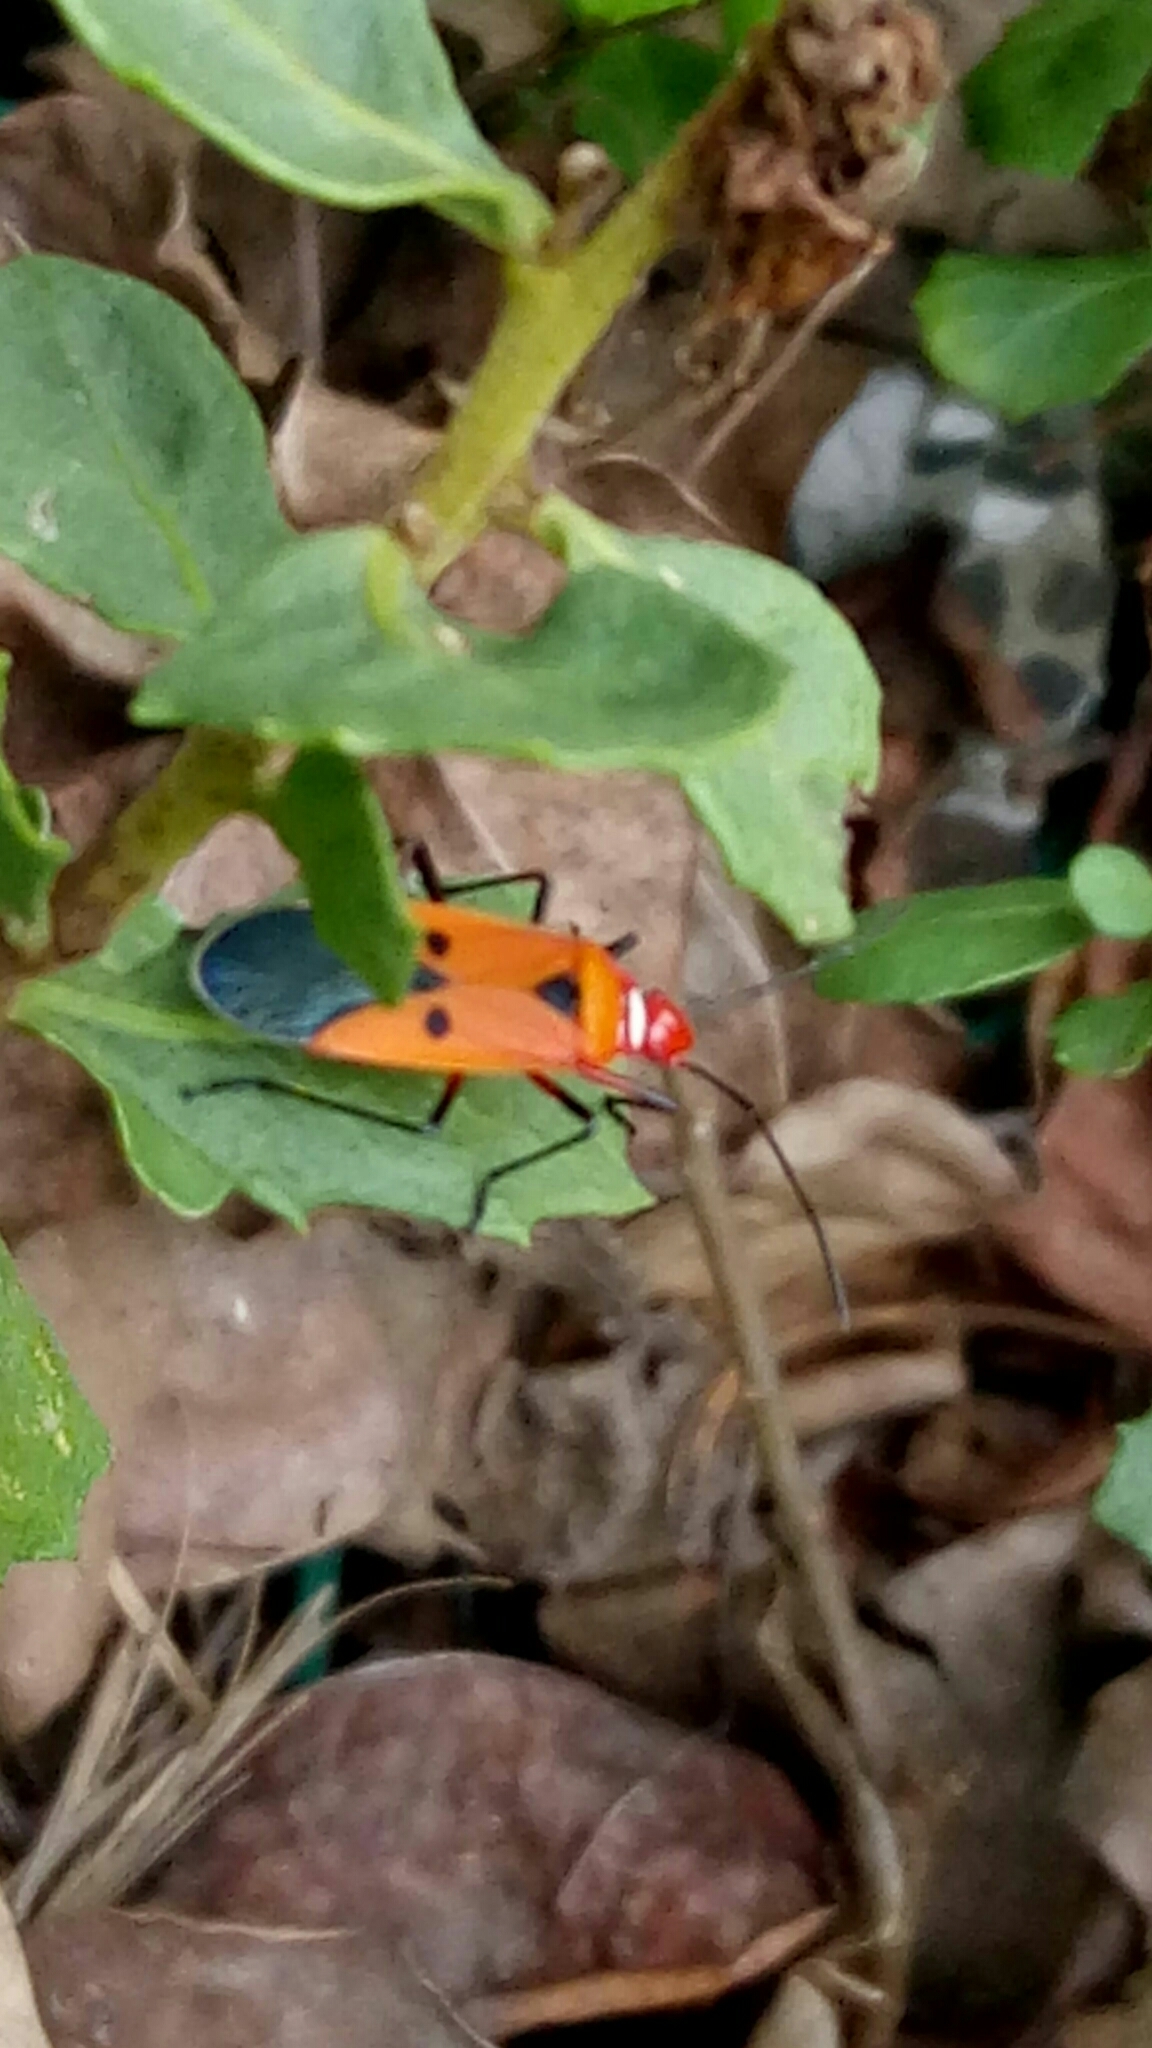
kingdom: Animalia
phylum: Arthropoda
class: Insecta
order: Hemiptera
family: Pyrrhocoridae
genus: Dysdercus
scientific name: Dysdercus cingulatus
